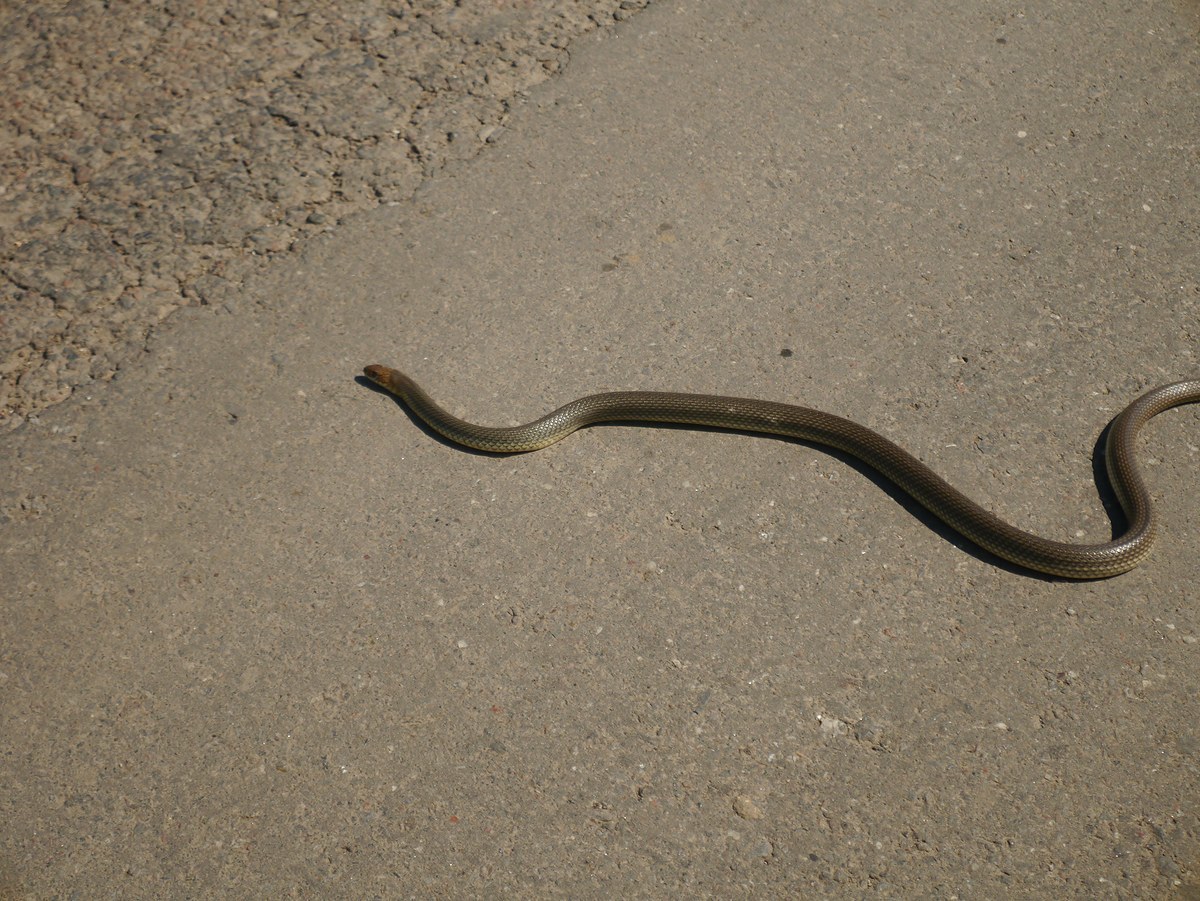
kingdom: Animalia
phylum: Chordata
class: Squamata
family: Colubridae
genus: Dolichophis
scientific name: Dolichophis caspius
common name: Large whip snake
